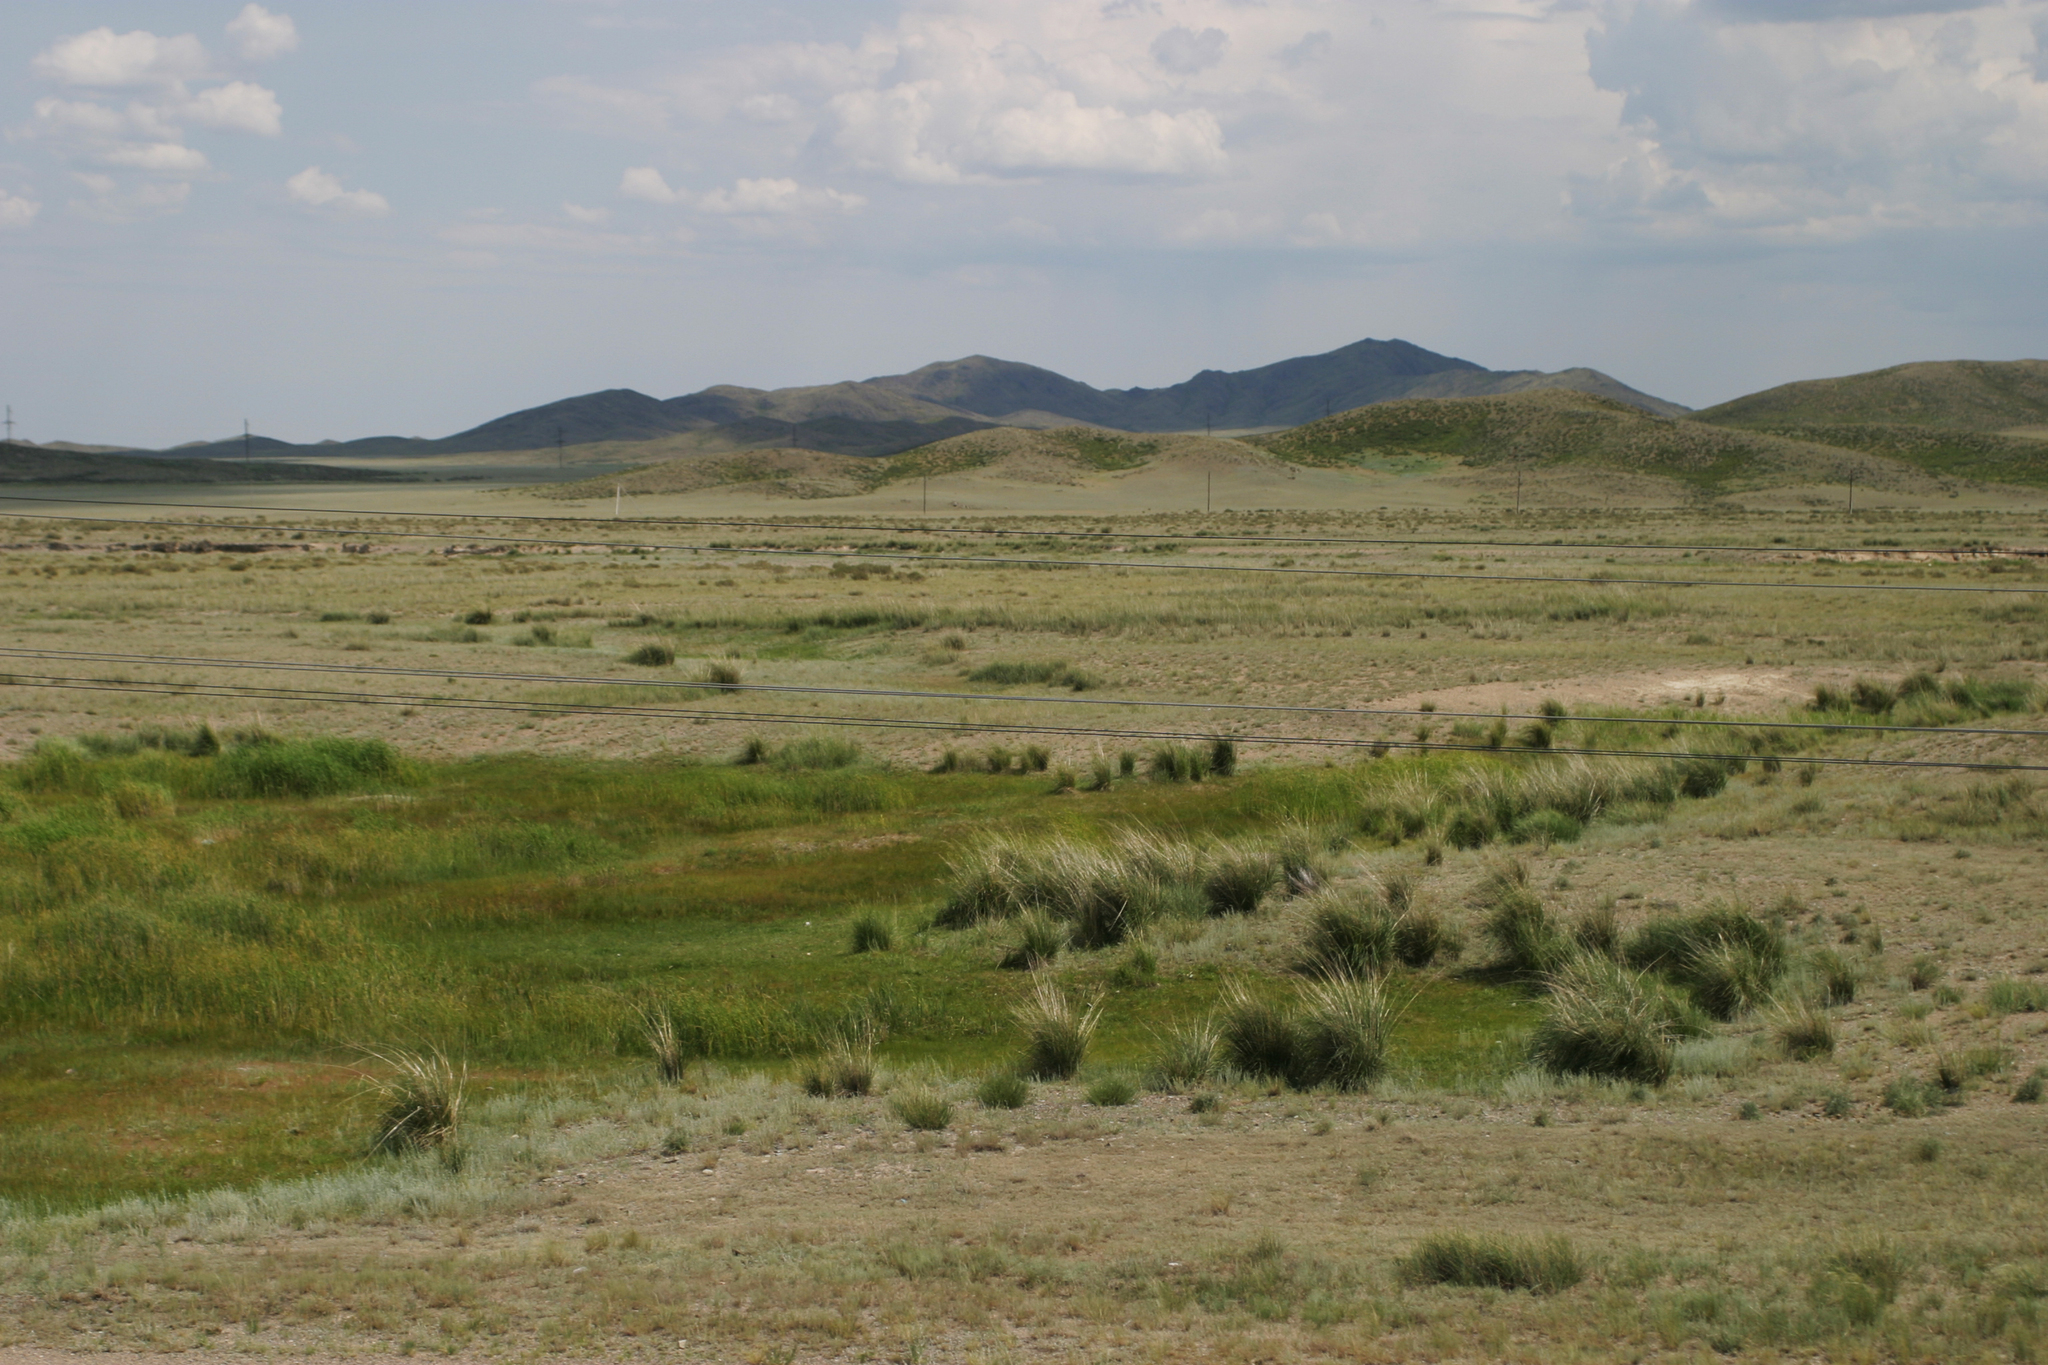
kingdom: Plantae
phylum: Tracheophyta
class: Liliopsida
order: Poales
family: Poaceae
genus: Neotrinia
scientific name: Neotrinia splendens
